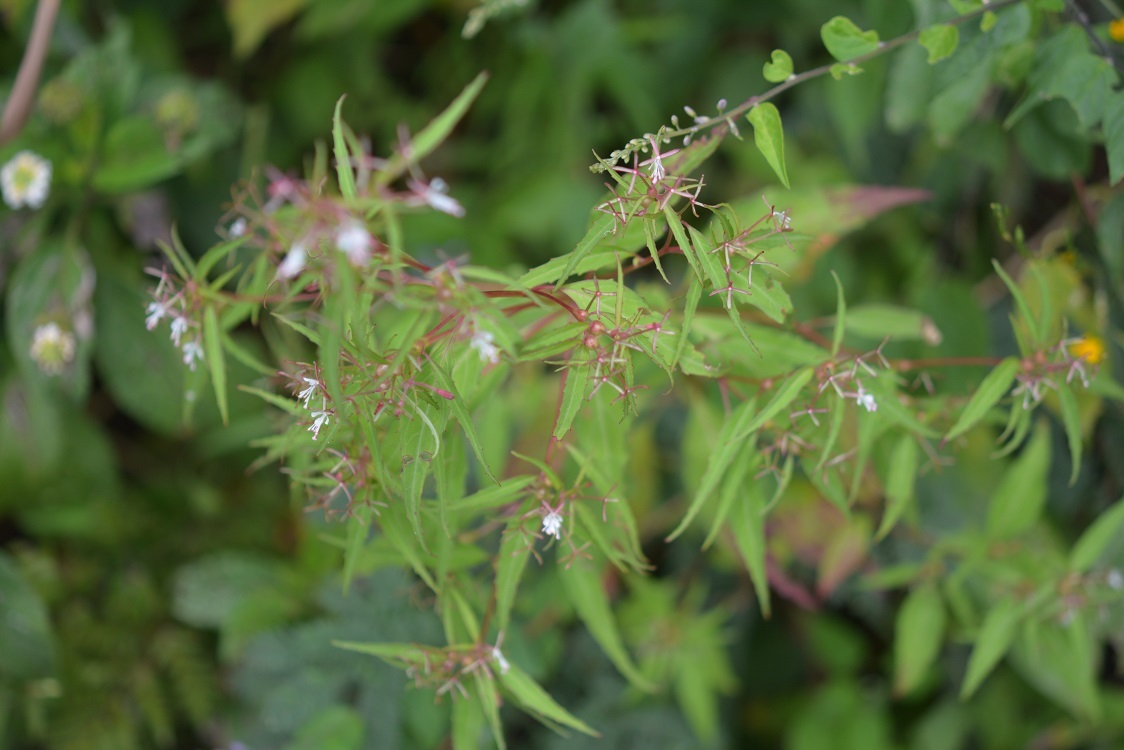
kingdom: Plantae
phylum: Tracheophyta
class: Magnoliopsida
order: Myrtales
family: Onagraceae
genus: Gongylocarpus
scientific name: Gongylocarpus rubricaulis
